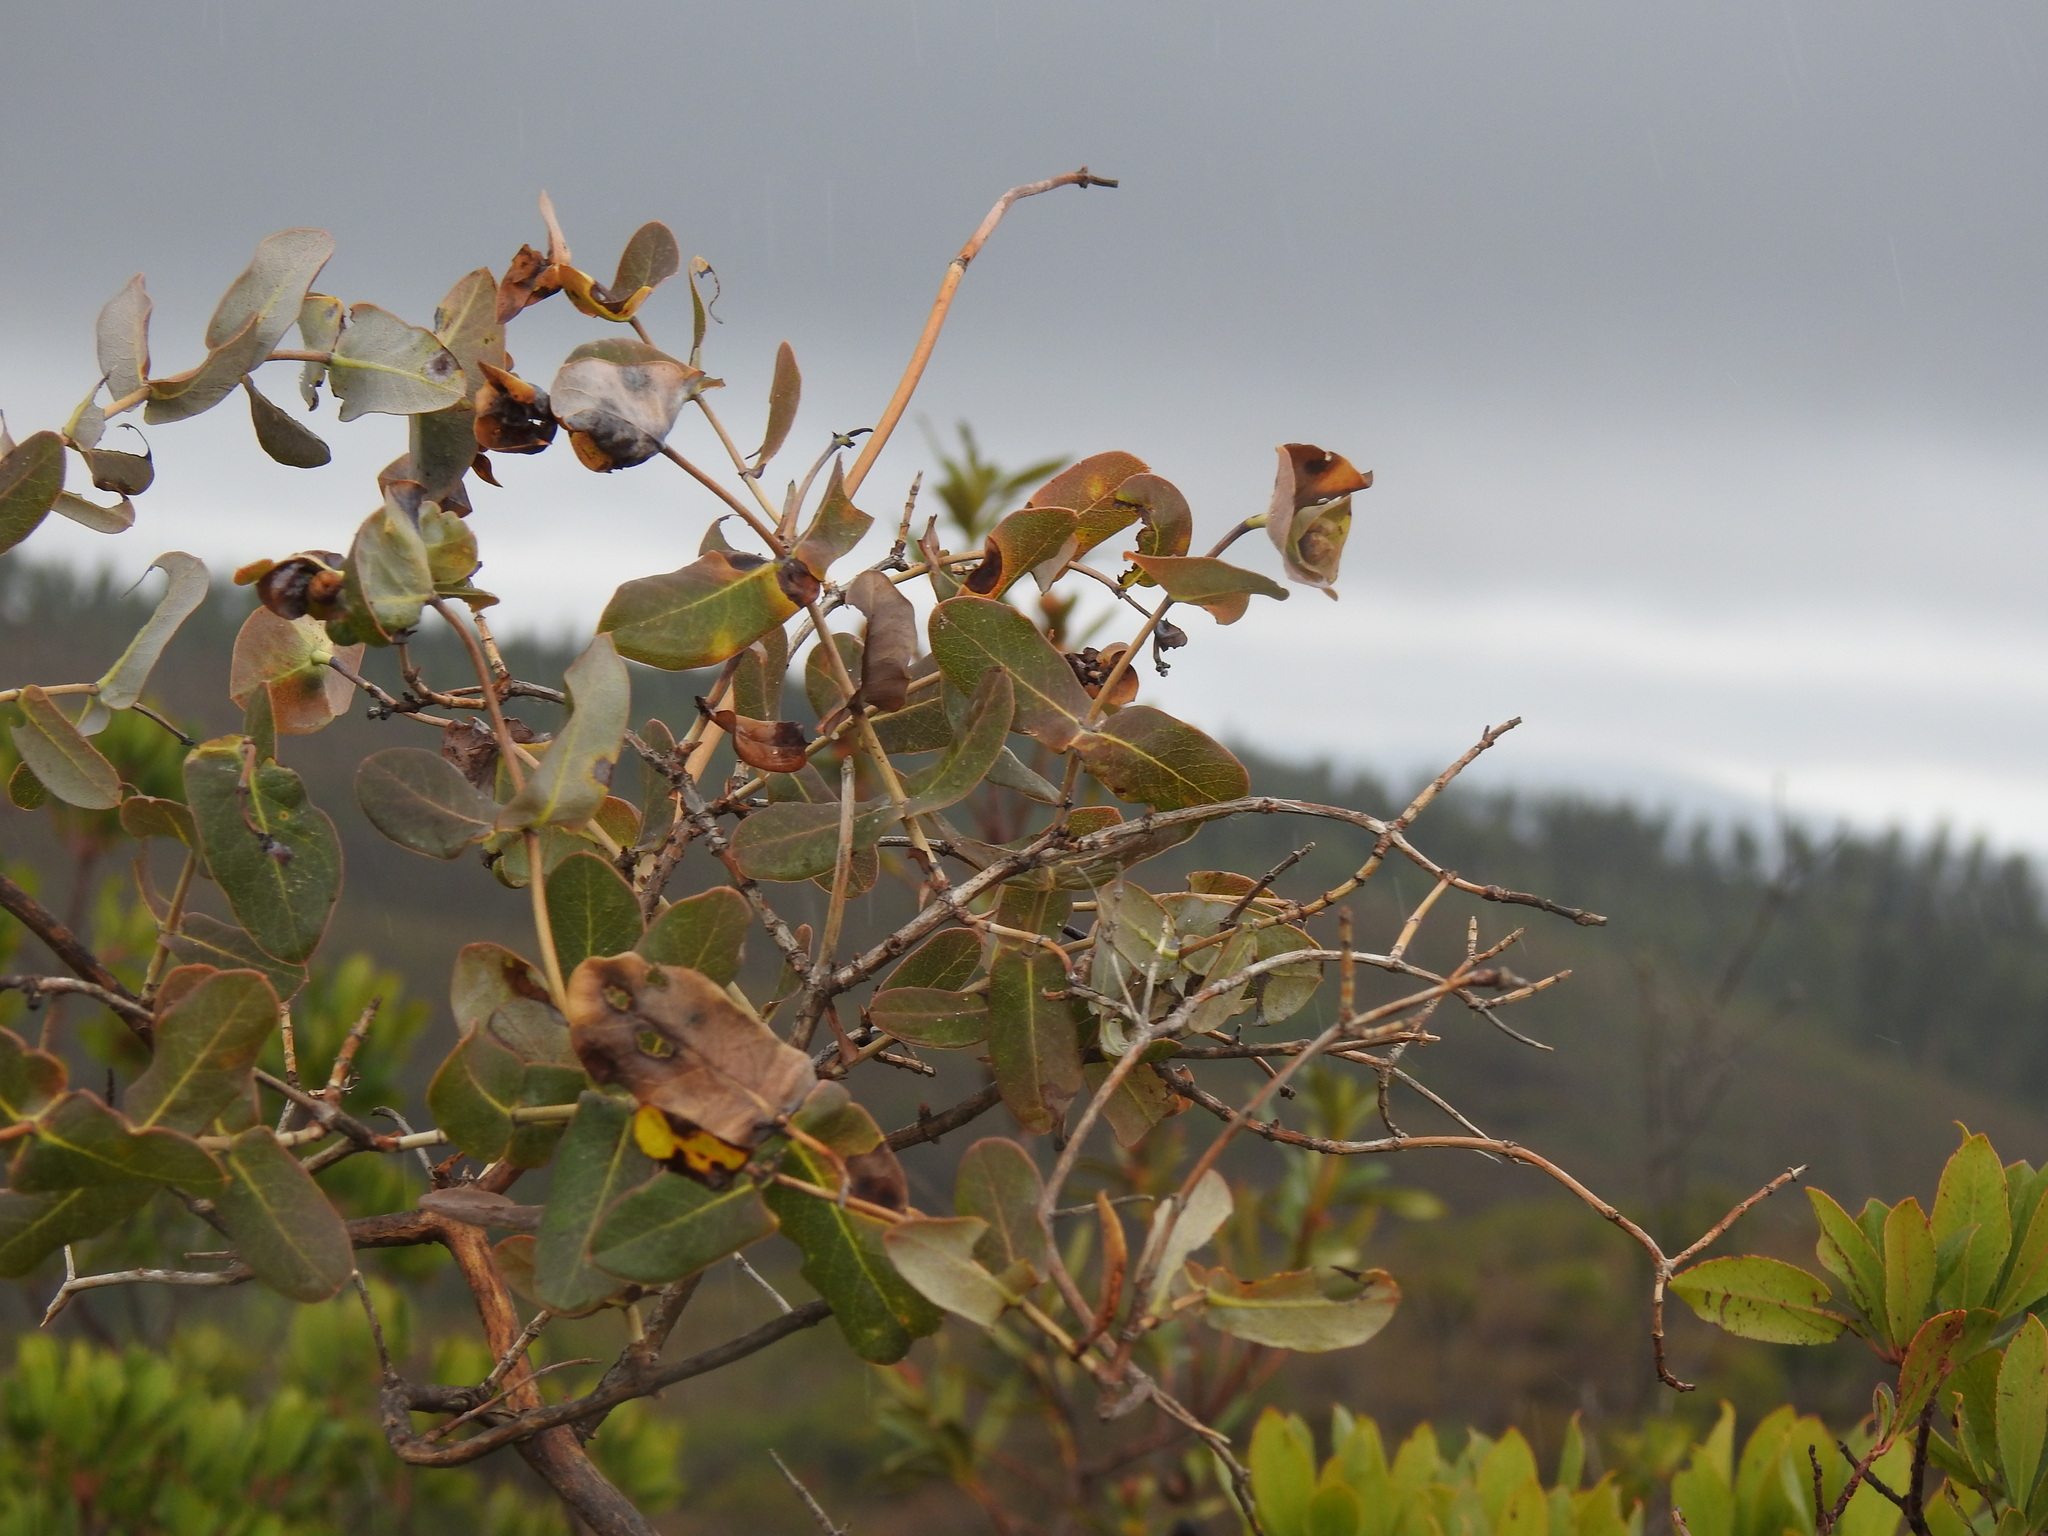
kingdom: Plantae
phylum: Tracheophyta
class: Magnoliopsida
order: Dipsacales
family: Caprifoliaceae
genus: Lonicera
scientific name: Lonicera implexa
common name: Minorca honeysuckle
